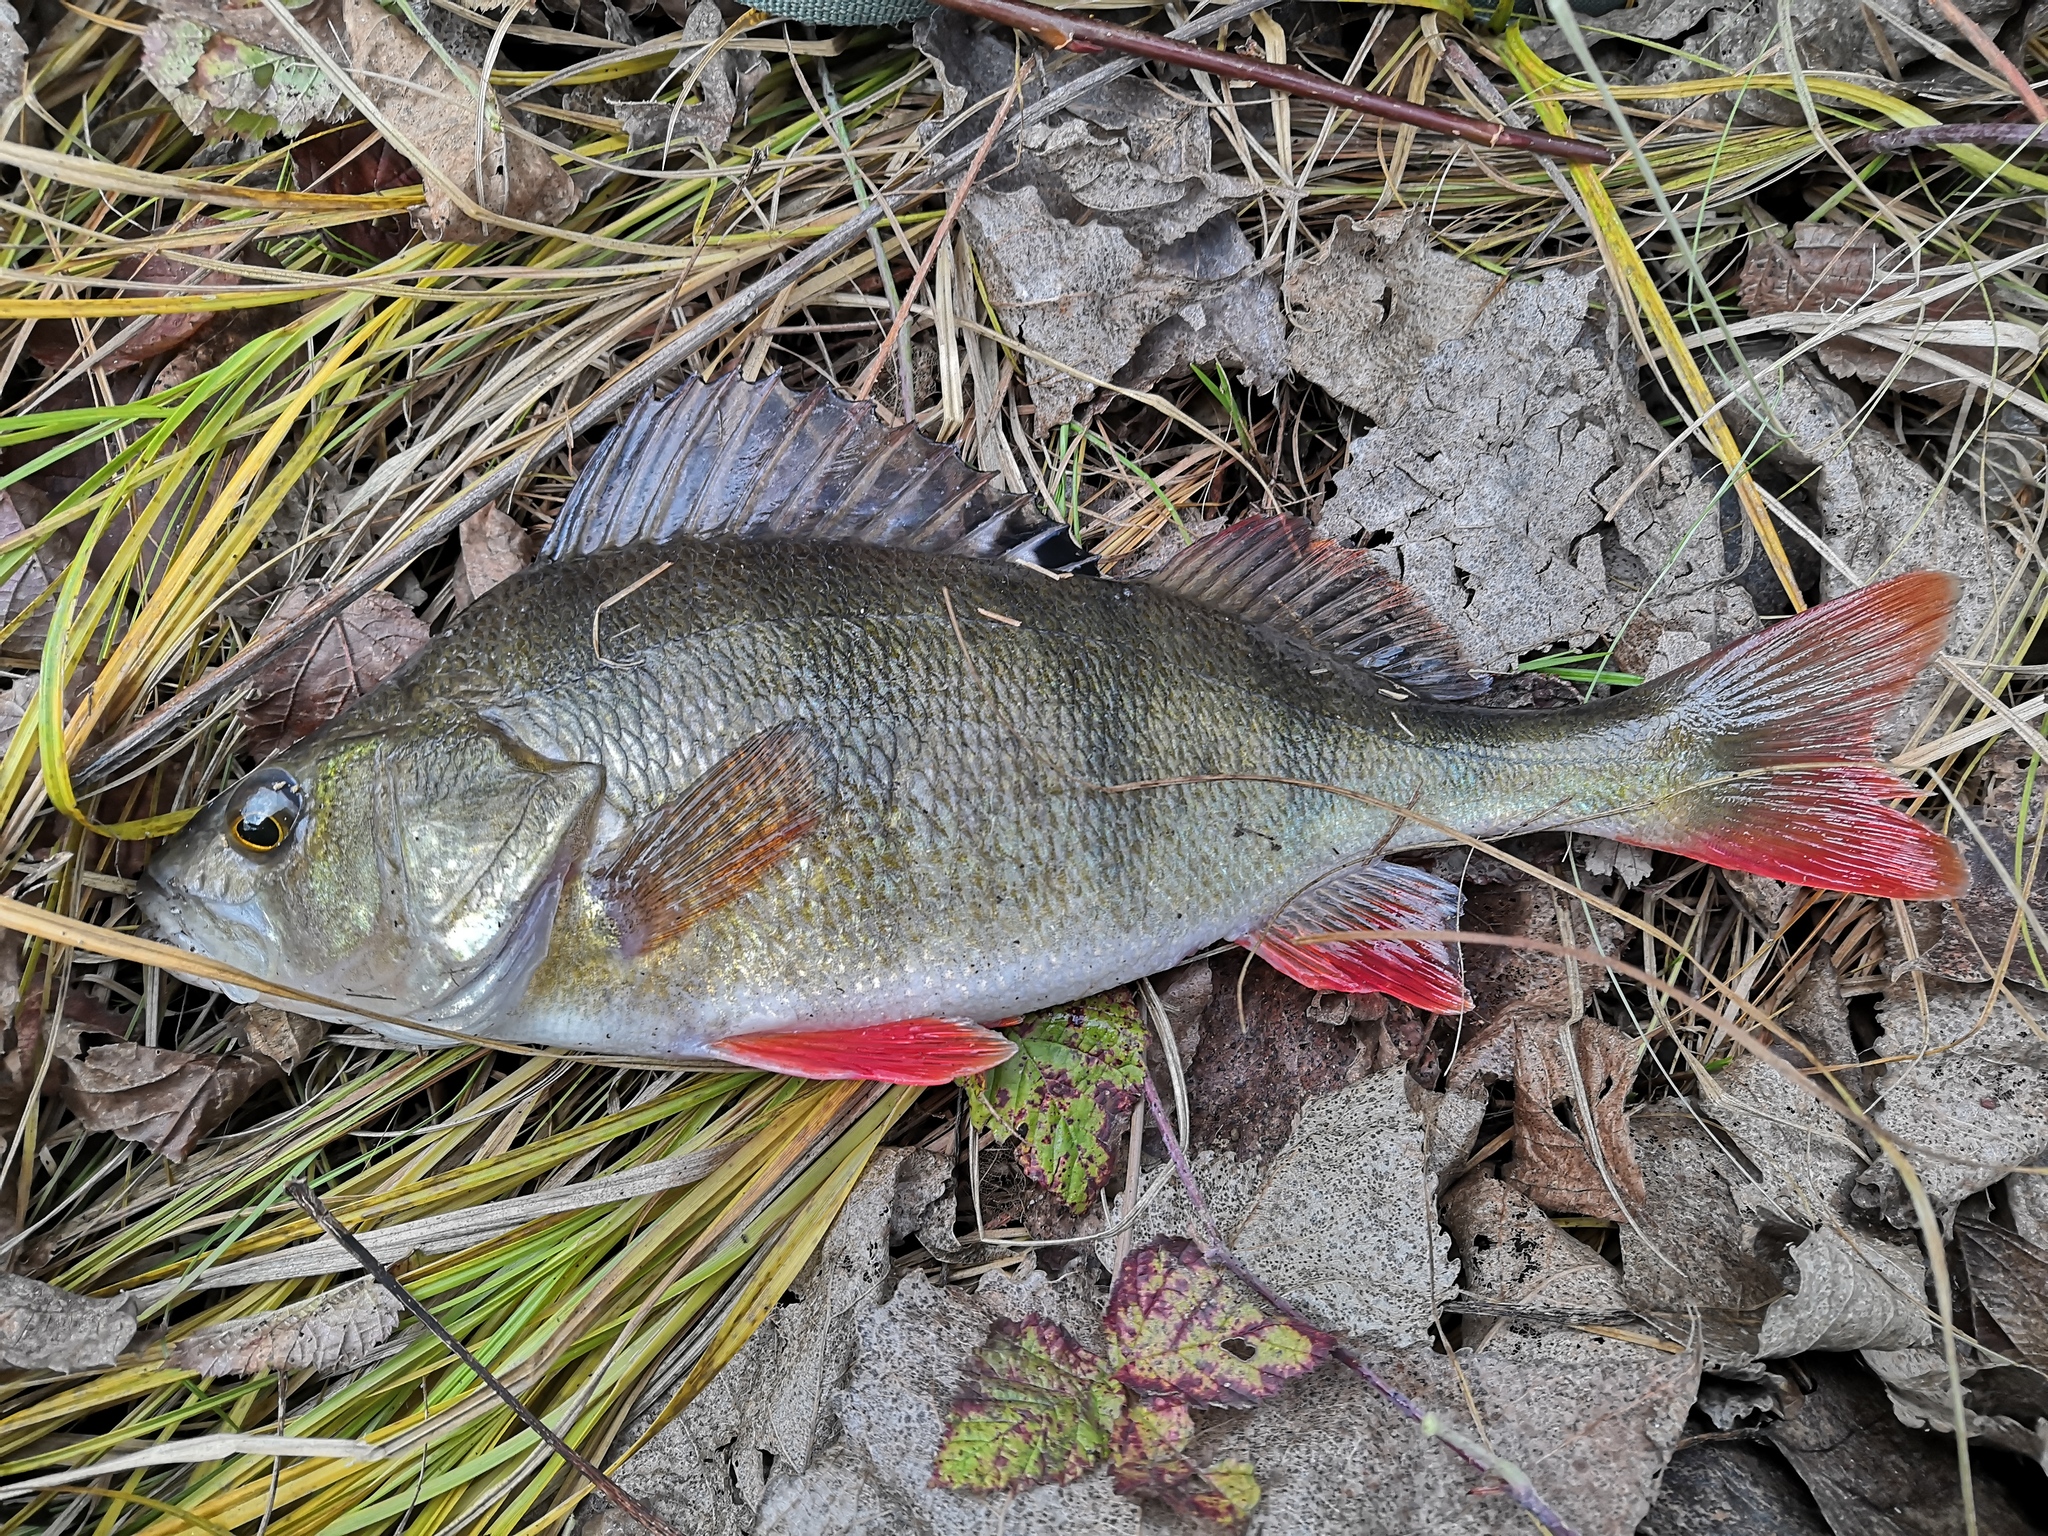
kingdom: Animalia
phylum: Chordata
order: Perciformes
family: Percidae
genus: Perca
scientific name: Perca fluviatilis
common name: Perch
